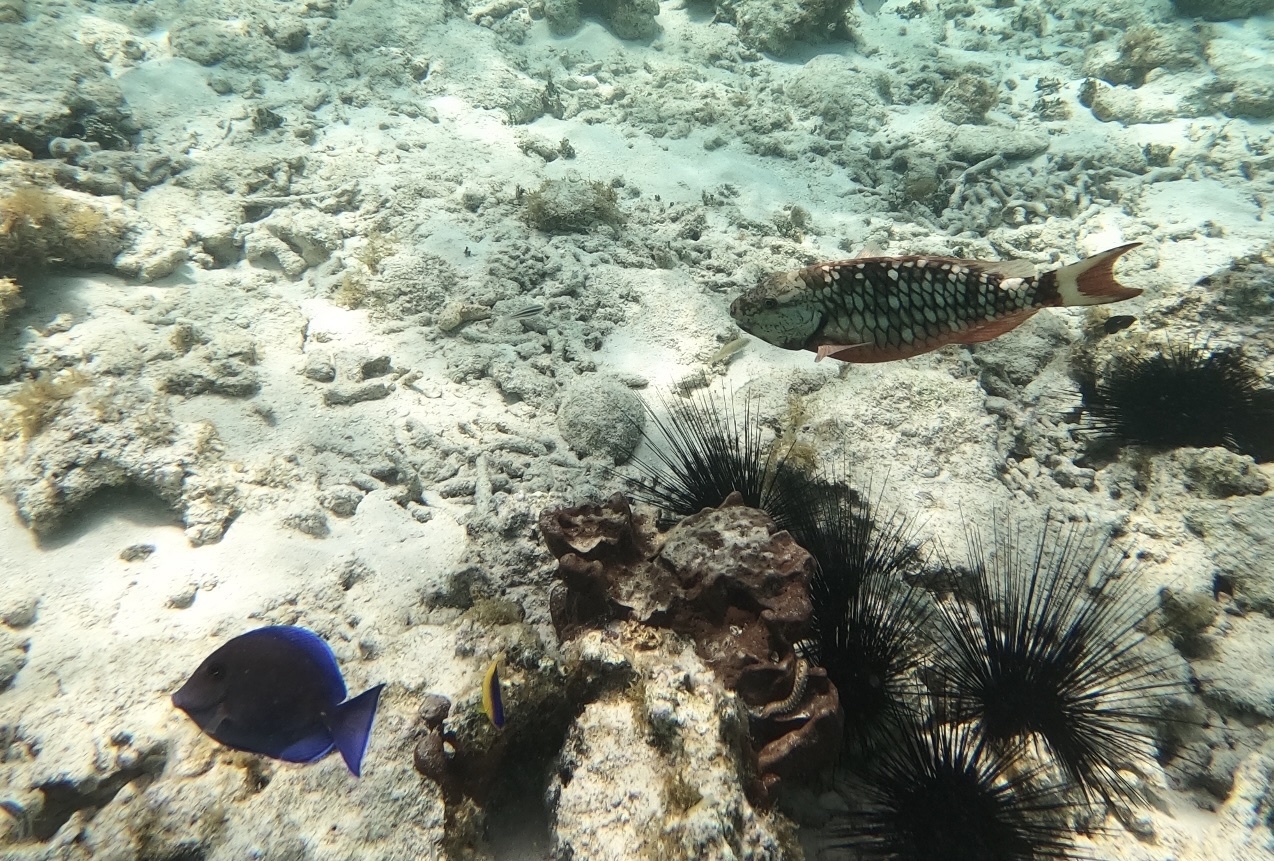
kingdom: Animalia
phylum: Chordata
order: Perciformes
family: Acanthuridae
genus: Acanthurus
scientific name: Acanthurus coeruleus
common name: Blue tang
